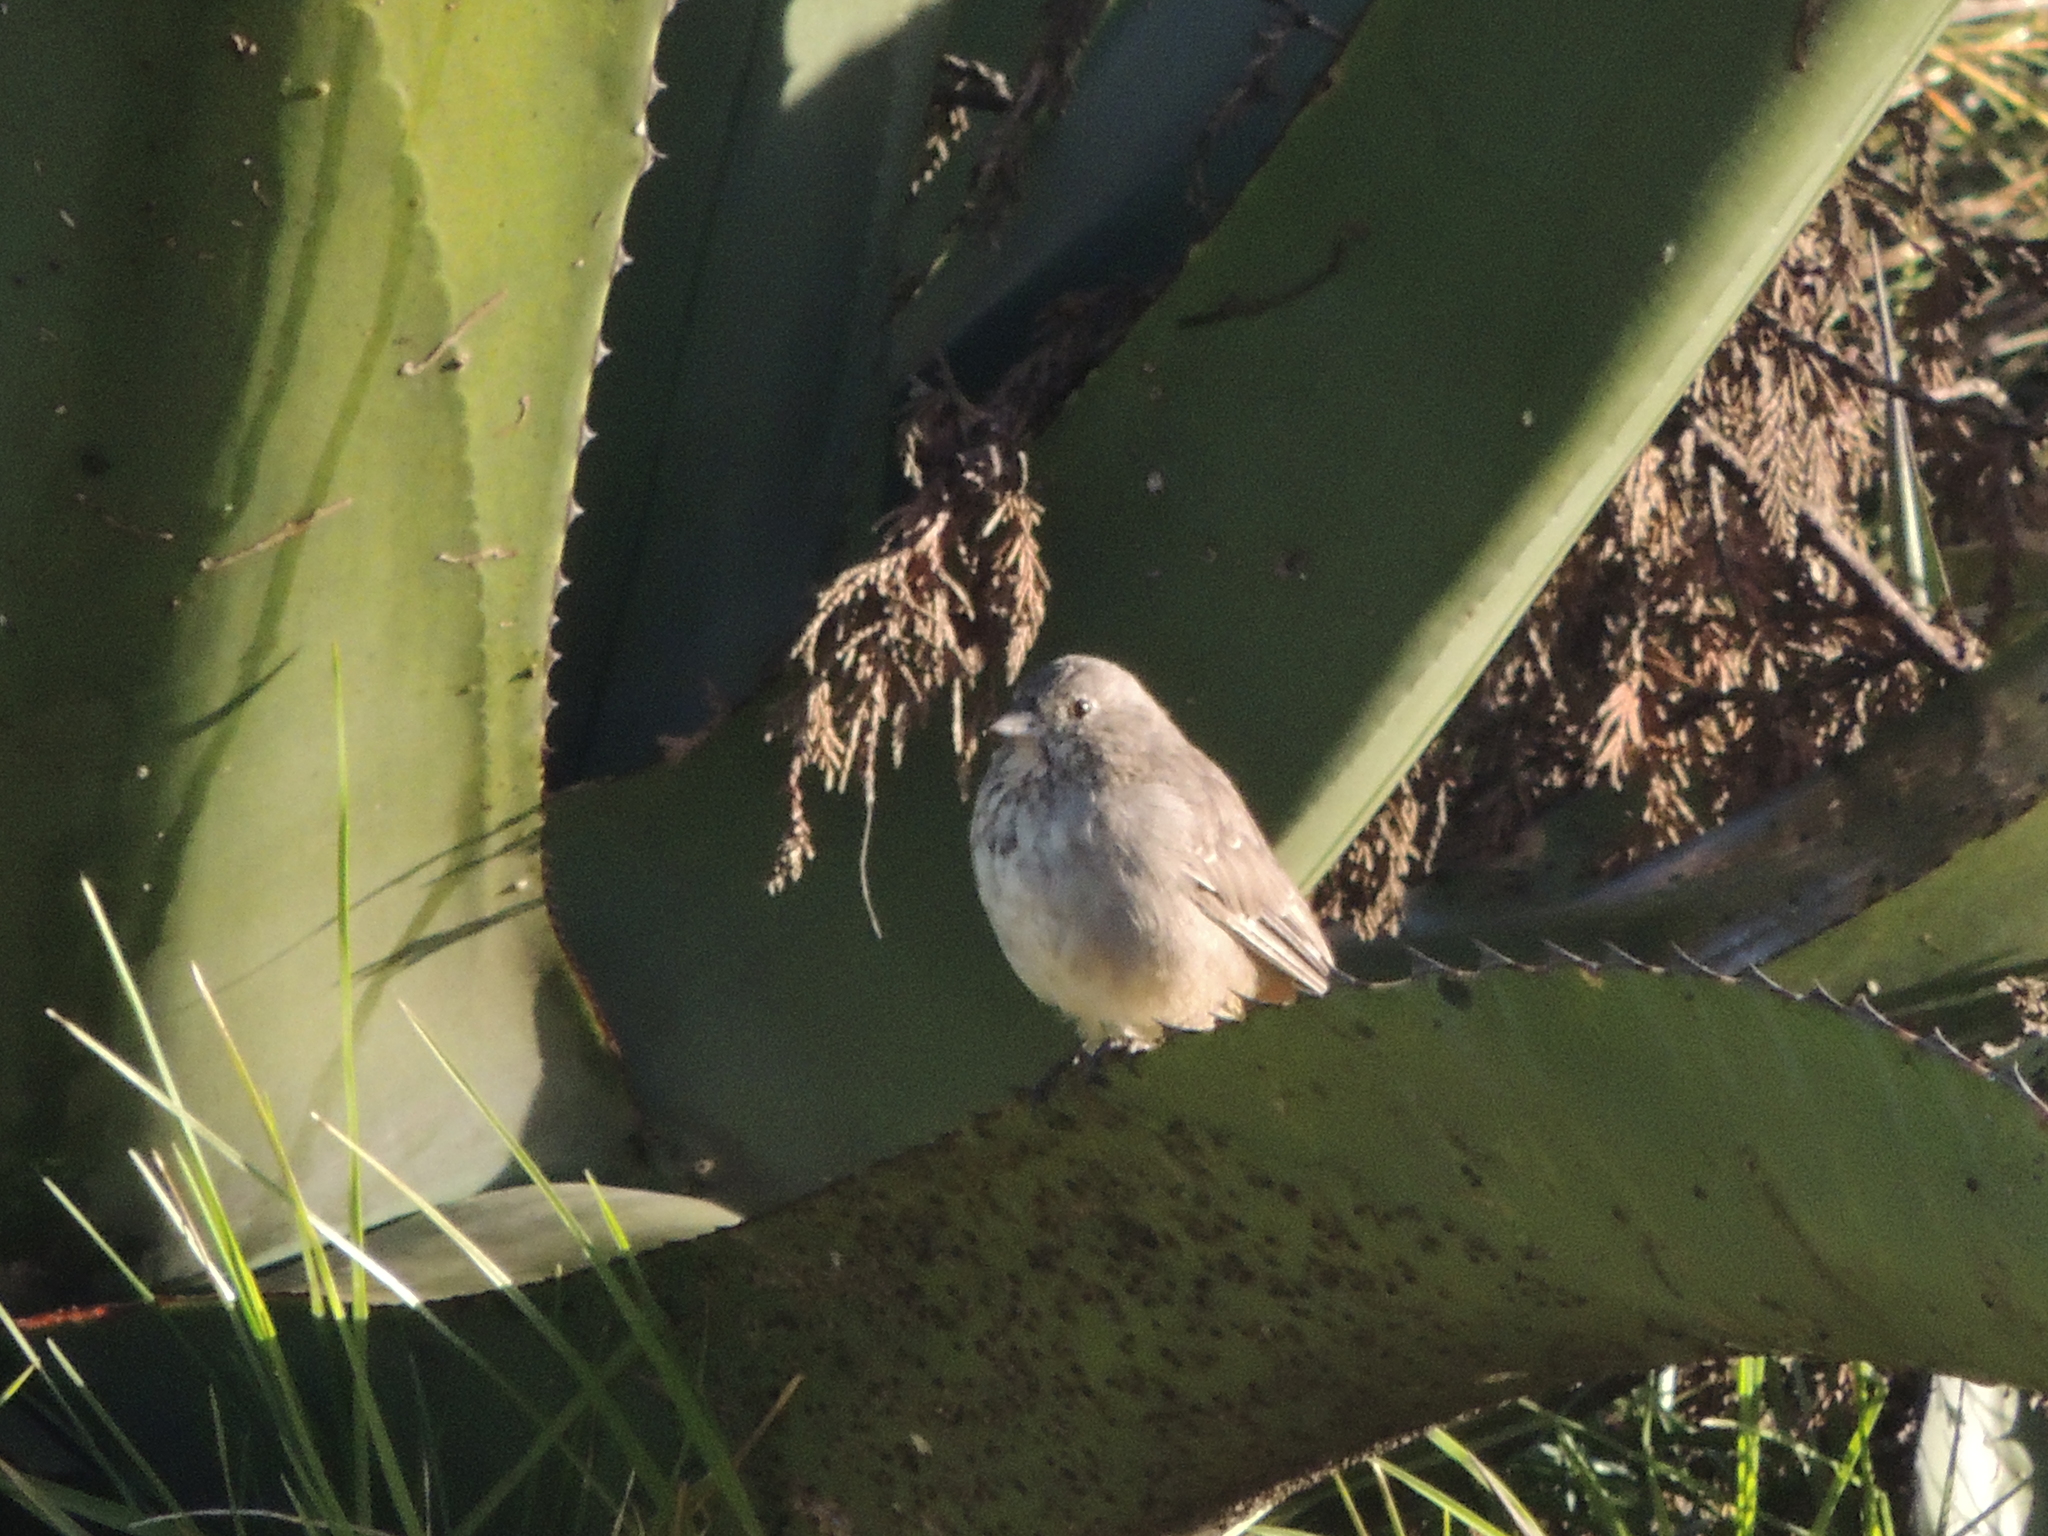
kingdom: Animalia
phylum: Chordata
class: Aves
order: Passeriformes
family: Passerellidae
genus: Melozone
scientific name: Melozone fusca
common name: Canyon towhee
